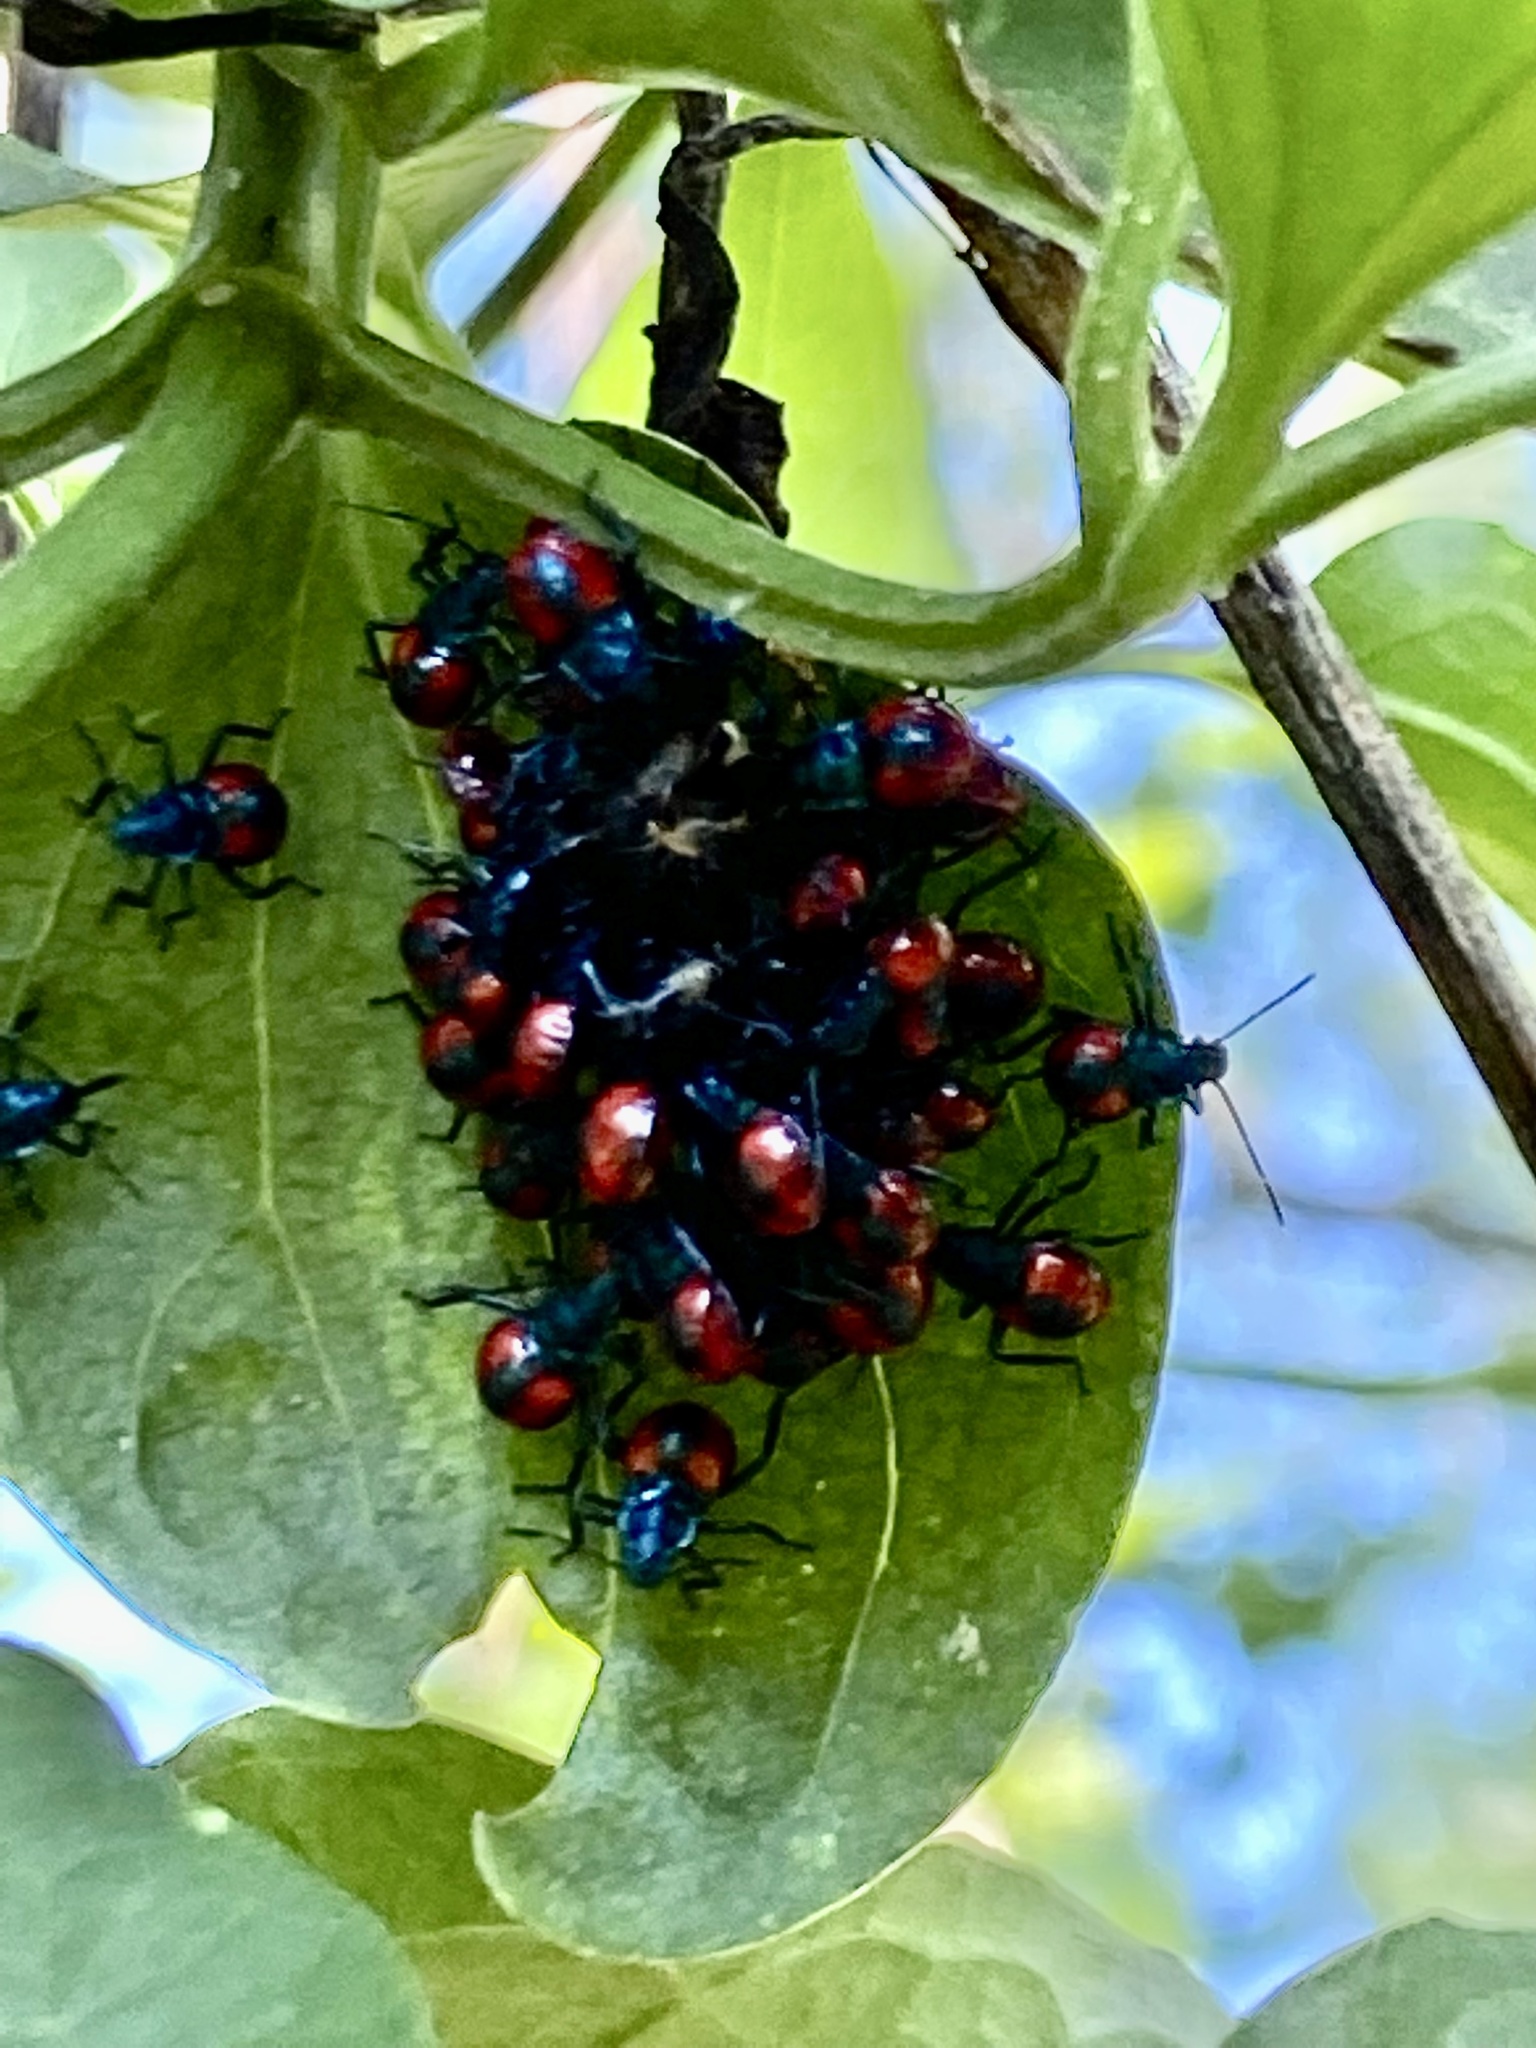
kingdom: Animalia
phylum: Arthropoda
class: Insecta
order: Hemiptera
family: Pentatomidae
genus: Euthyrhynchus
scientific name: Euthyrhynchus floridanus
